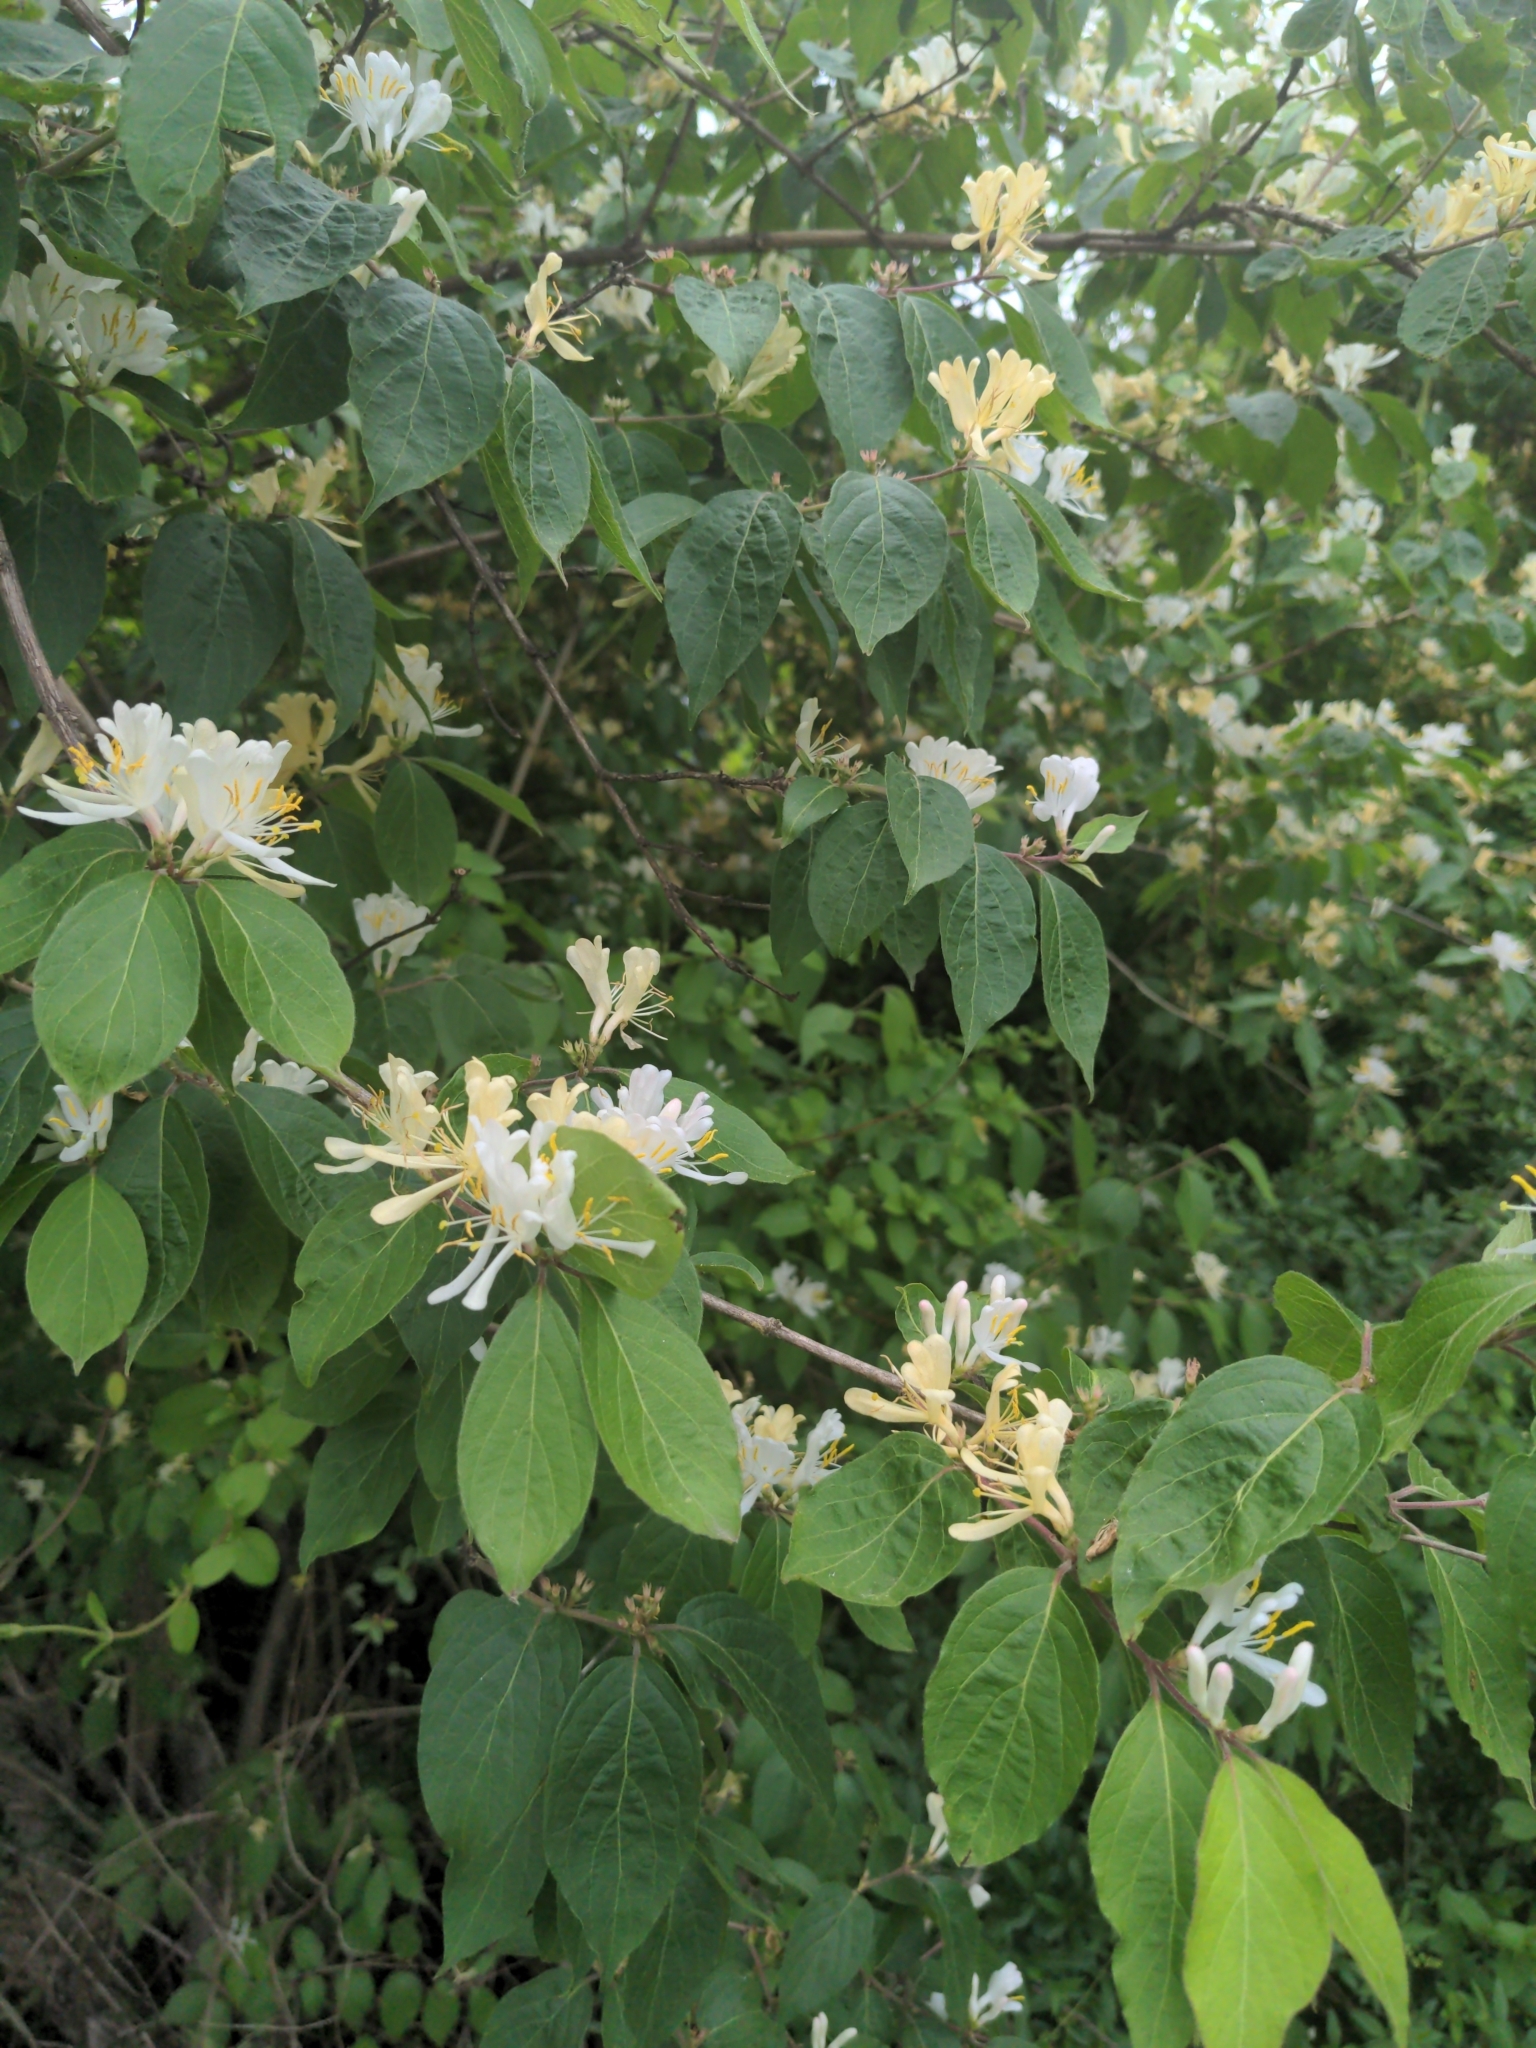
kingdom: Plantae
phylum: Tracheophyta
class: Magnoliopsida
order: Dipsacales
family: Caprifoliaceae
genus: Lonicera
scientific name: Lonicera maackii
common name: Amur honeysuckle
